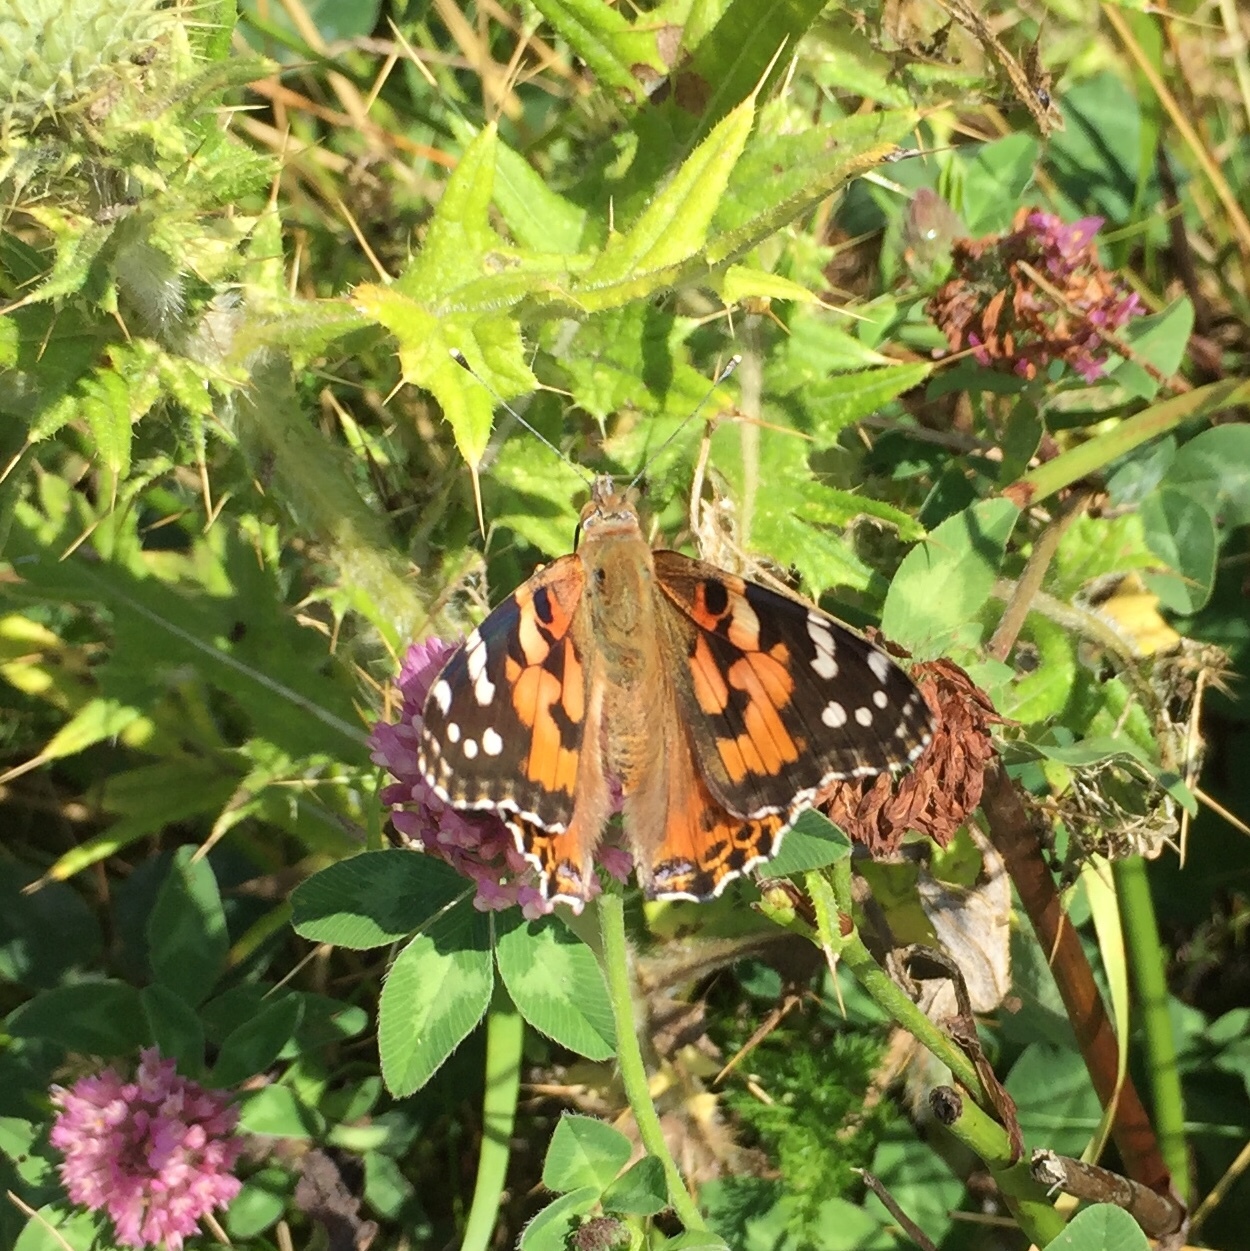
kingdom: Animalia
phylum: Arthropoda
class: Insecta
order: Lepidoptera
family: Nymphalidae
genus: Vanessa
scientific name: Vanessa cardui
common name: Painted lady
